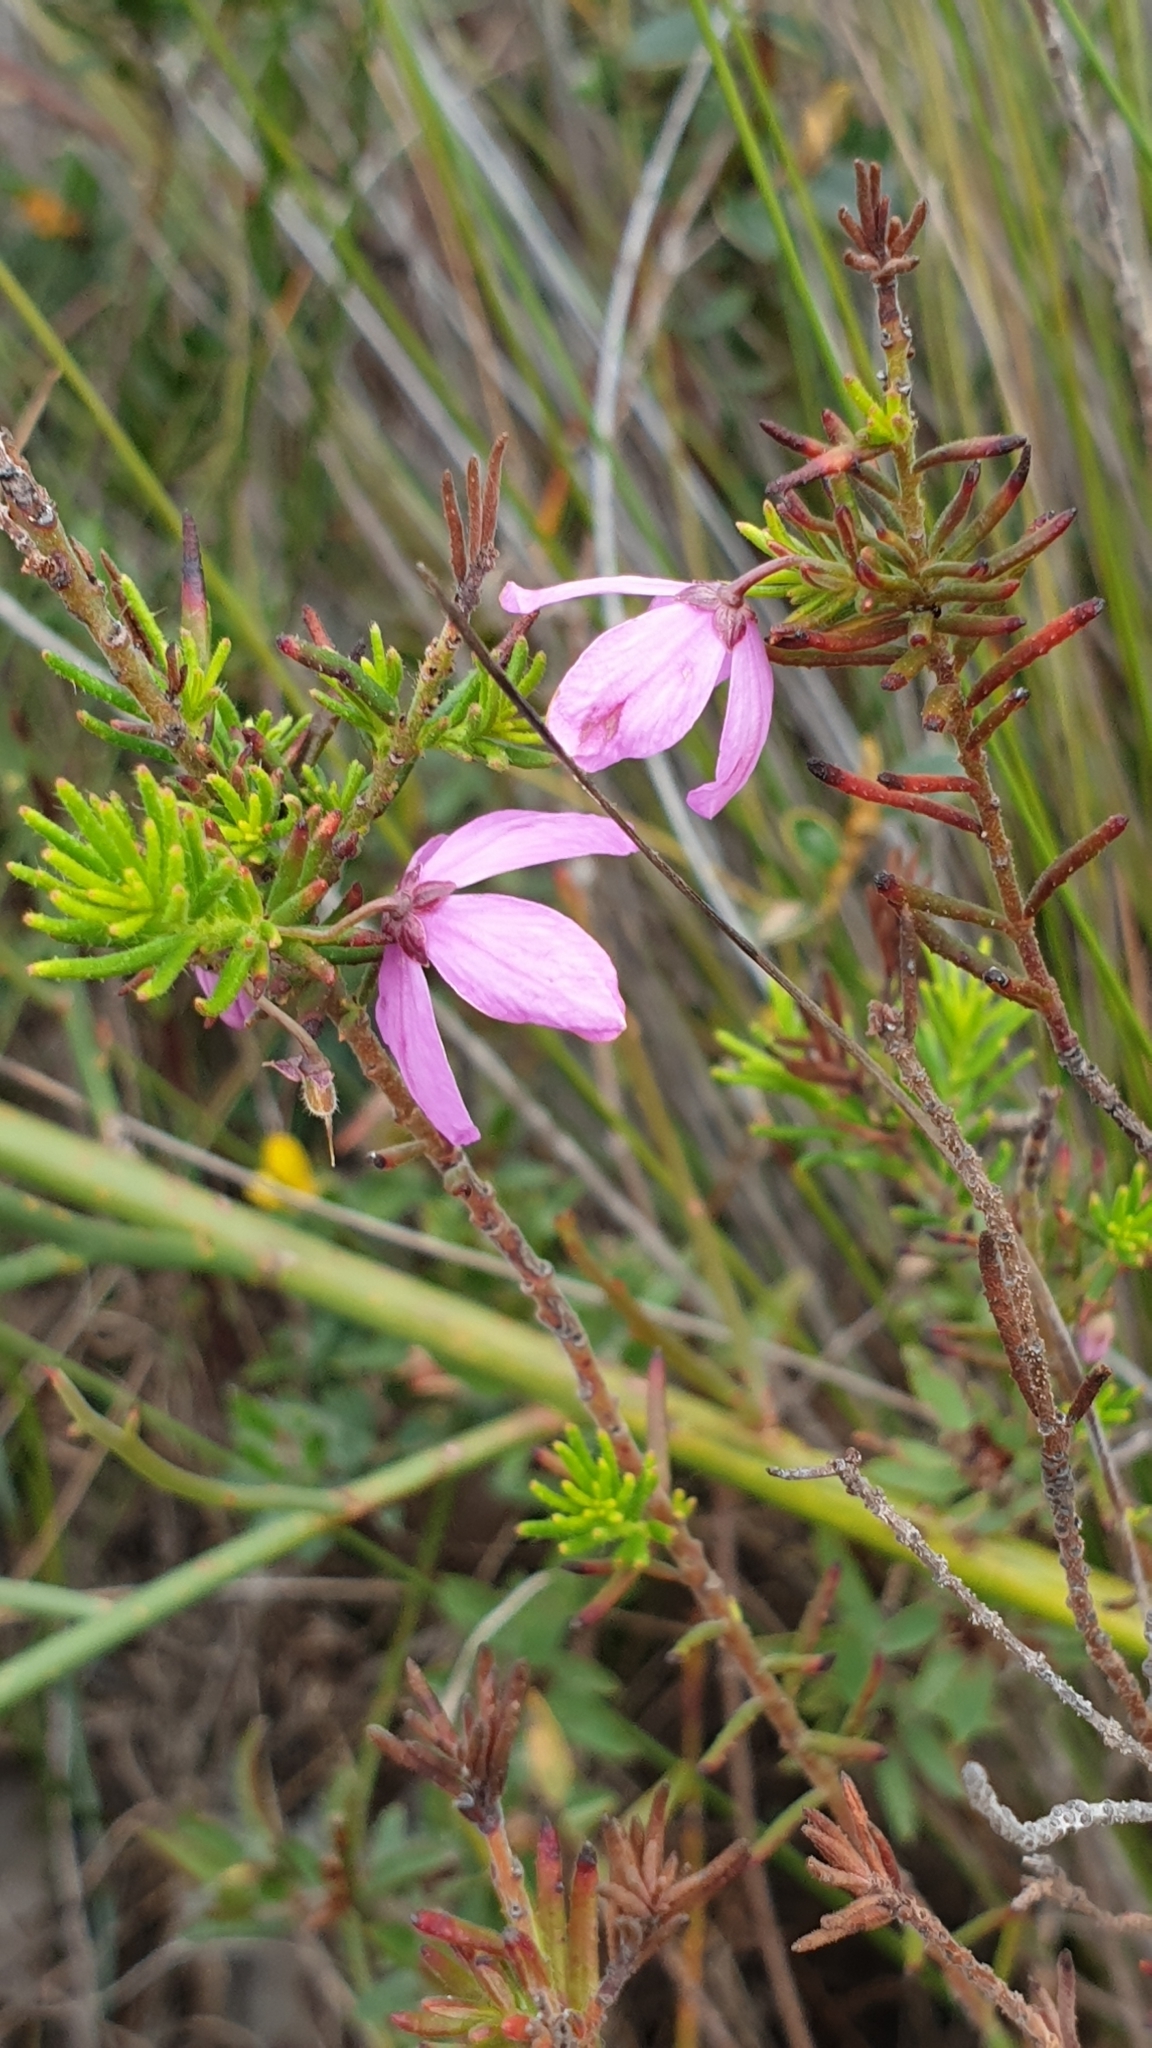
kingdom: Plantae
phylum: Tracheophyta
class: Magnoliopsida
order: Oxalidales
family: Elaeocarpaceae
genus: Tetratheca
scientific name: Tetratheca pilosa
